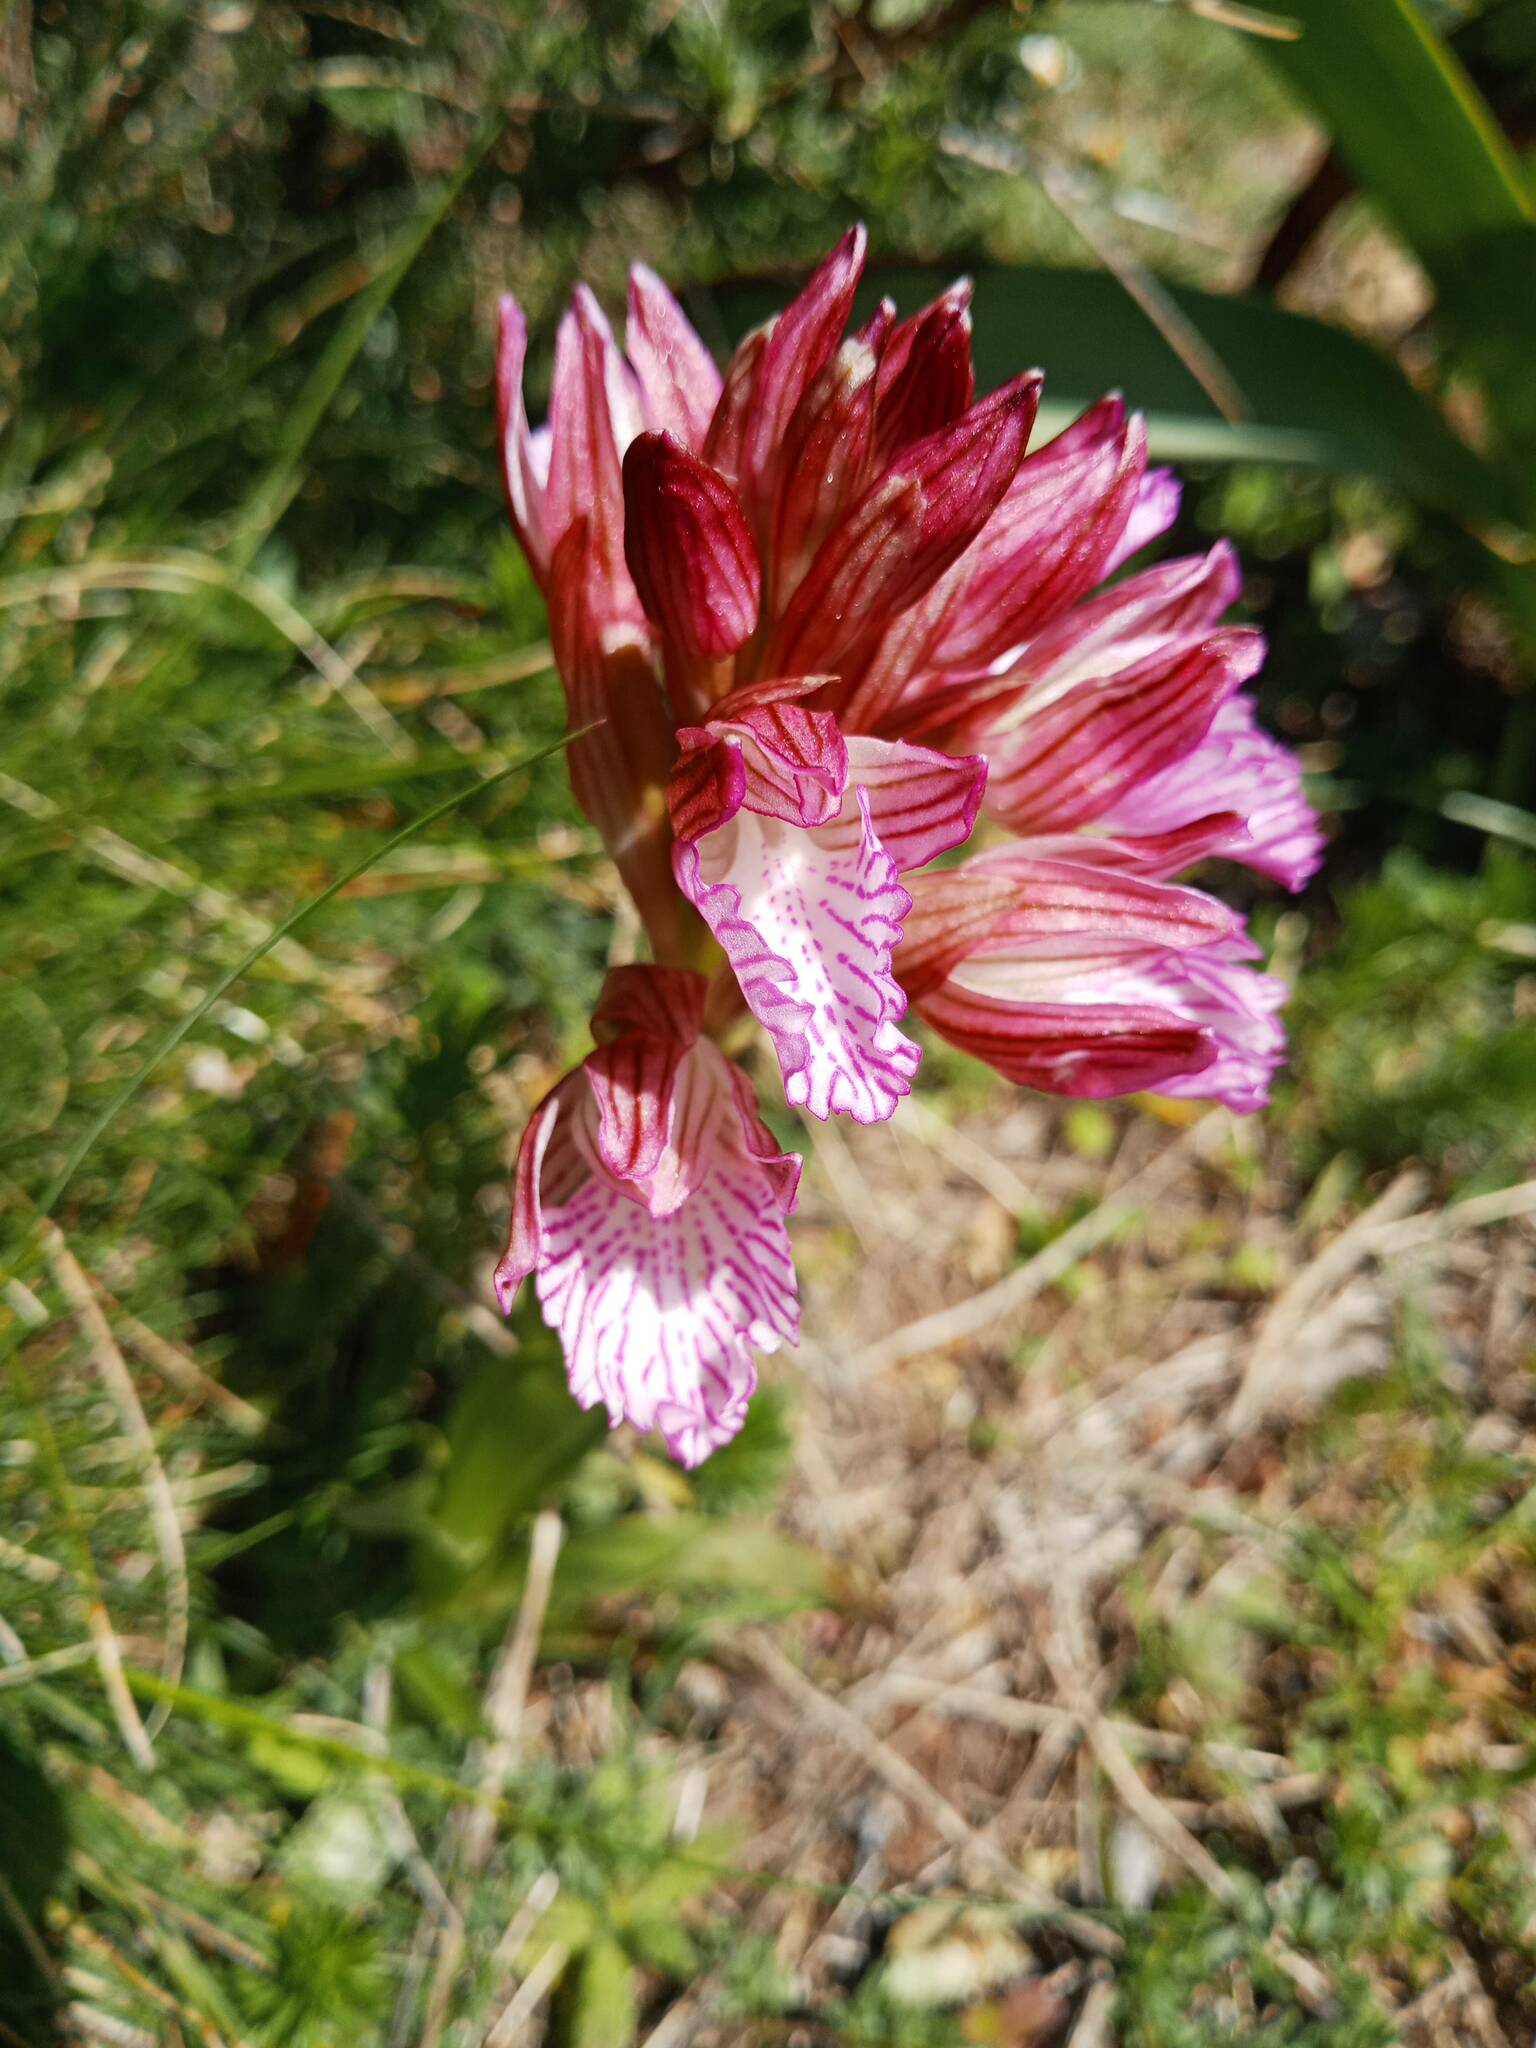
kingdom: Plantae
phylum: Tracheophyta
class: Liliopsida
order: Asparagales
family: Orchidaceae
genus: Anacamptis
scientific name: Anacamptis papilionacea
